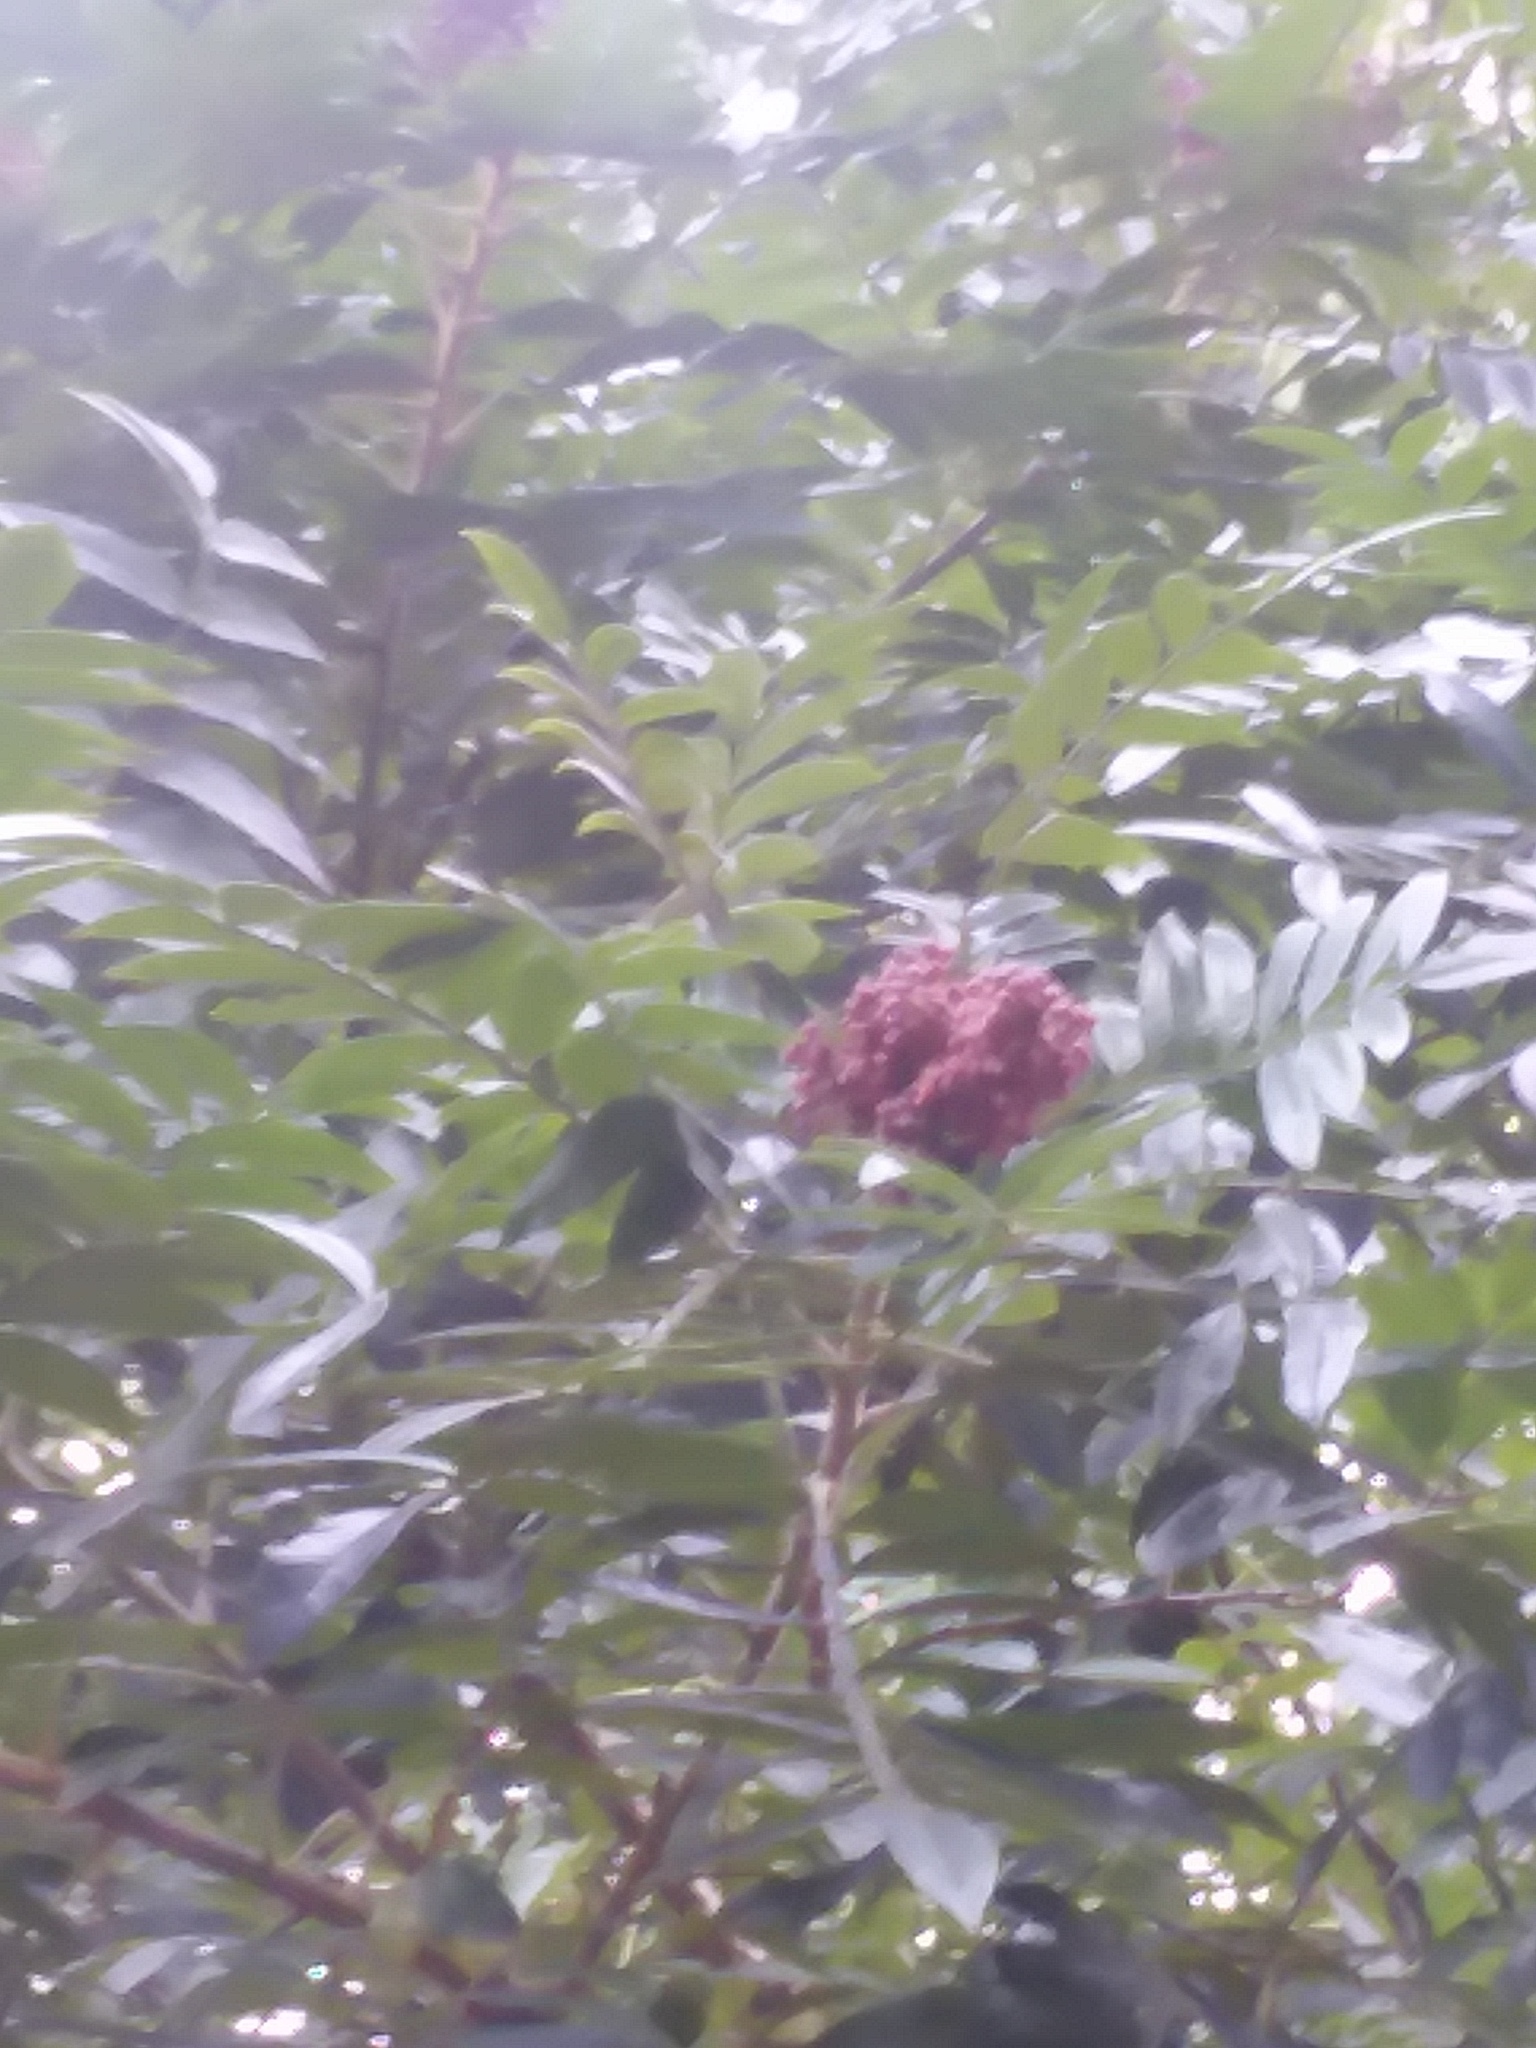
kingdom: Plantae
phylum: Tracheophyta
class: Magnoliopsida
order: Sapindales
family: Anacardiaceae
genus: Rhus
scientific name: Rhus copallina
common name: Shining sumac
